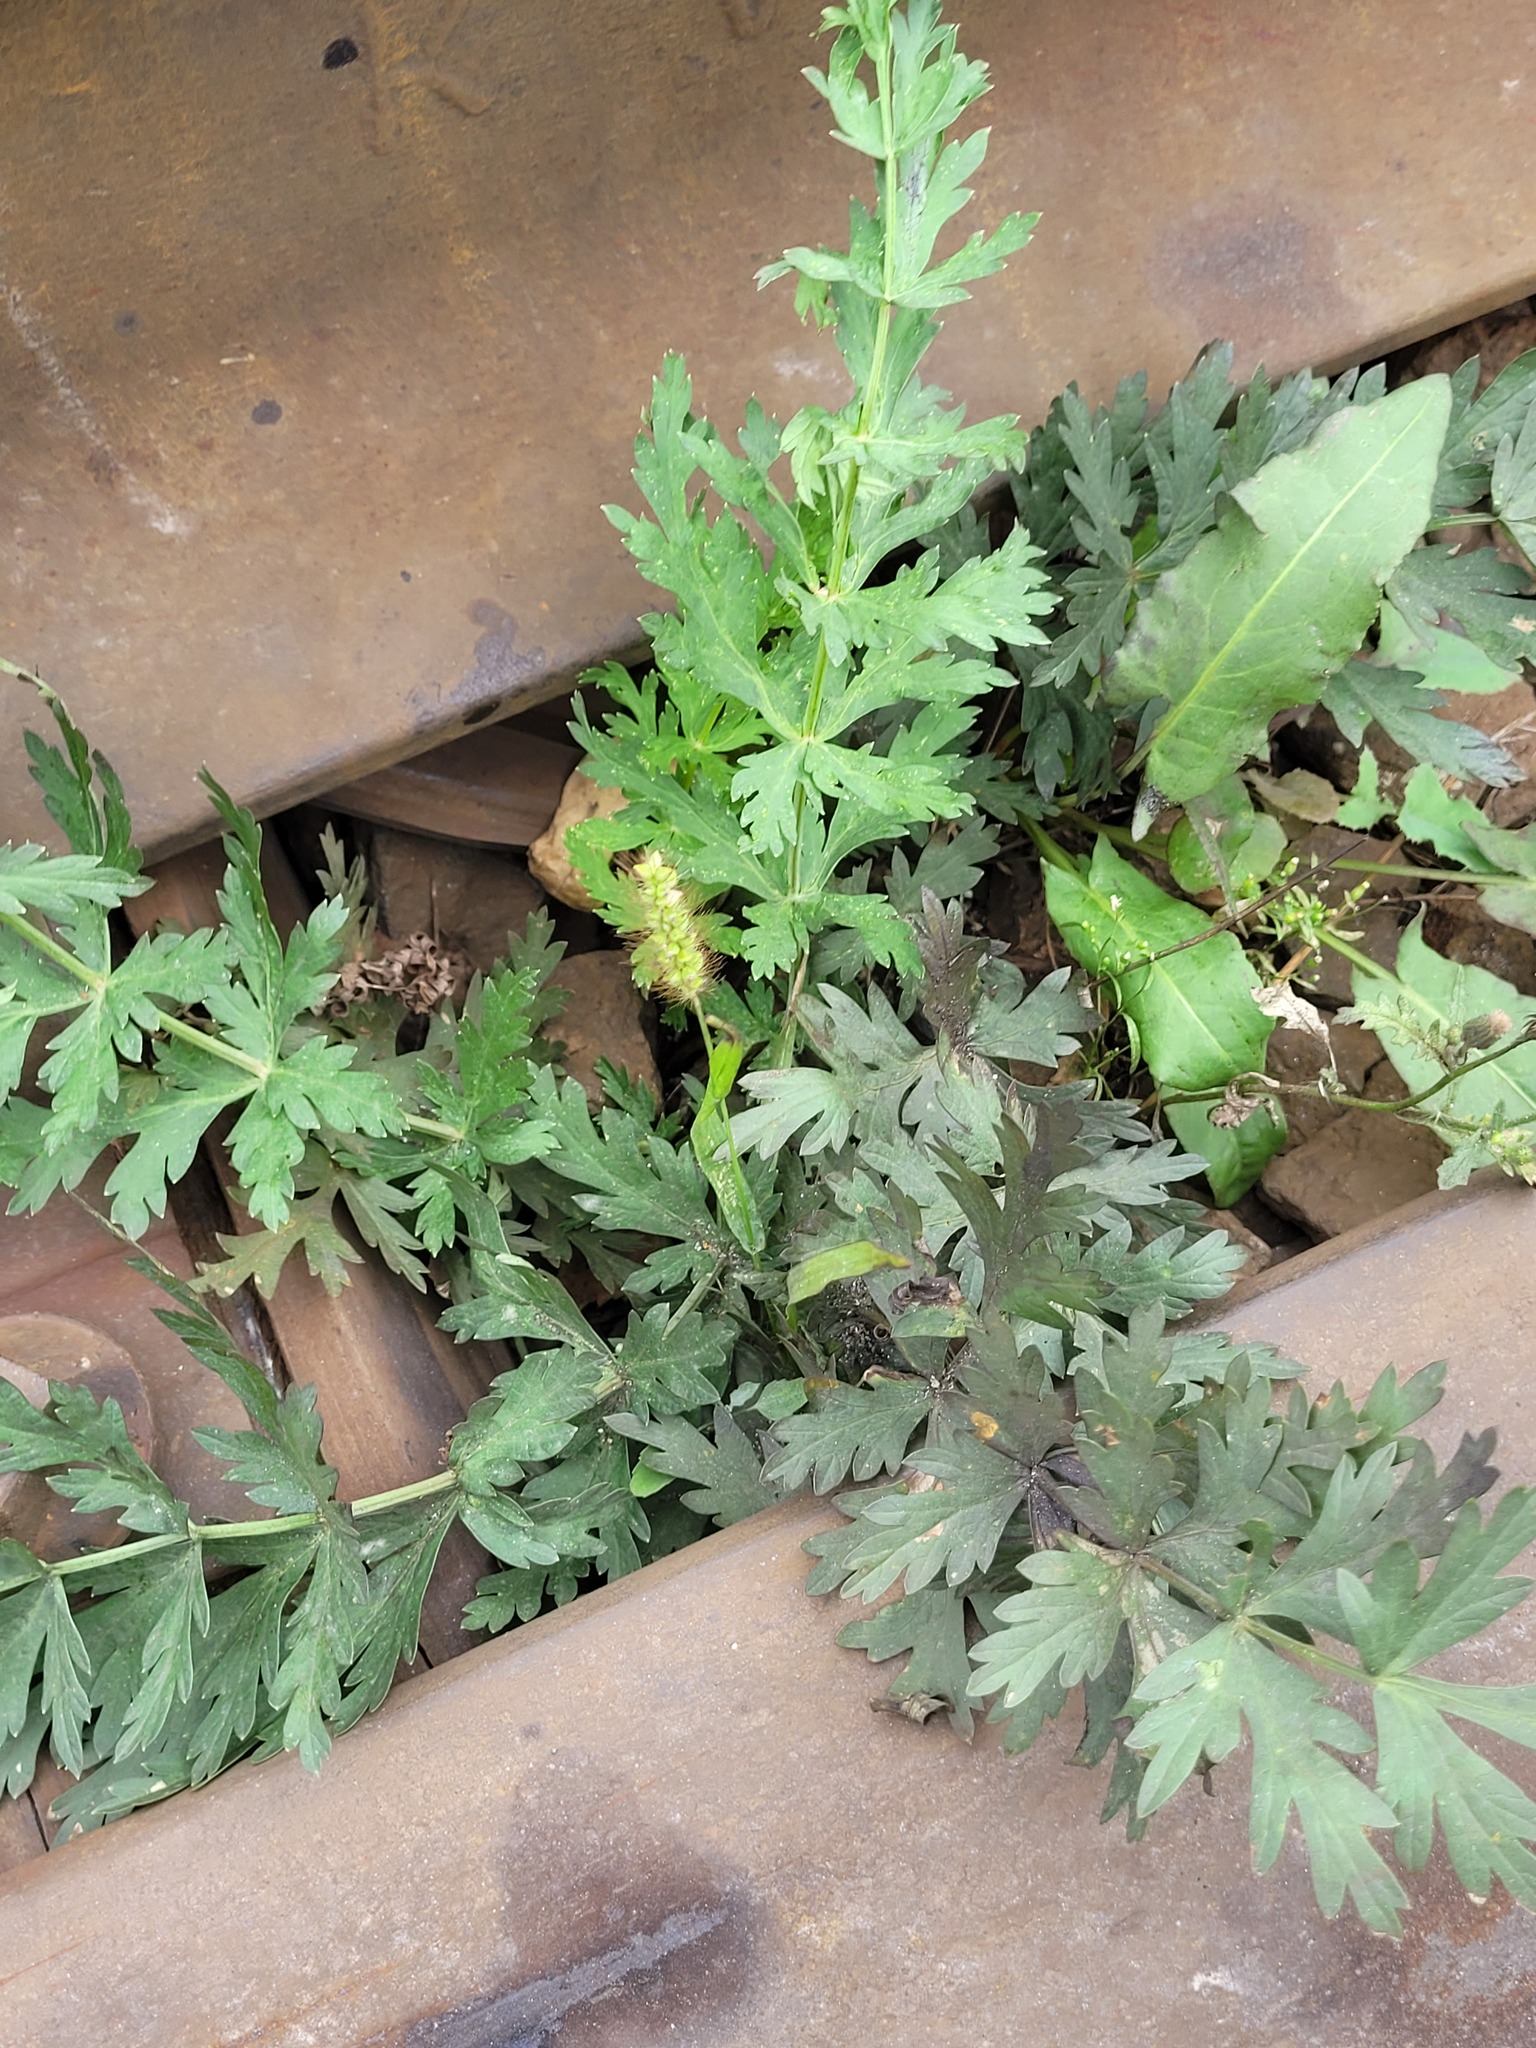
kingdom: Plantae
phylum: Tracheophyta
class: Liliopsida
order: Poales
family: Poaceae
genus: Setaria
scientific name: Setaria pumila
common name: Yellow bristle-grass
